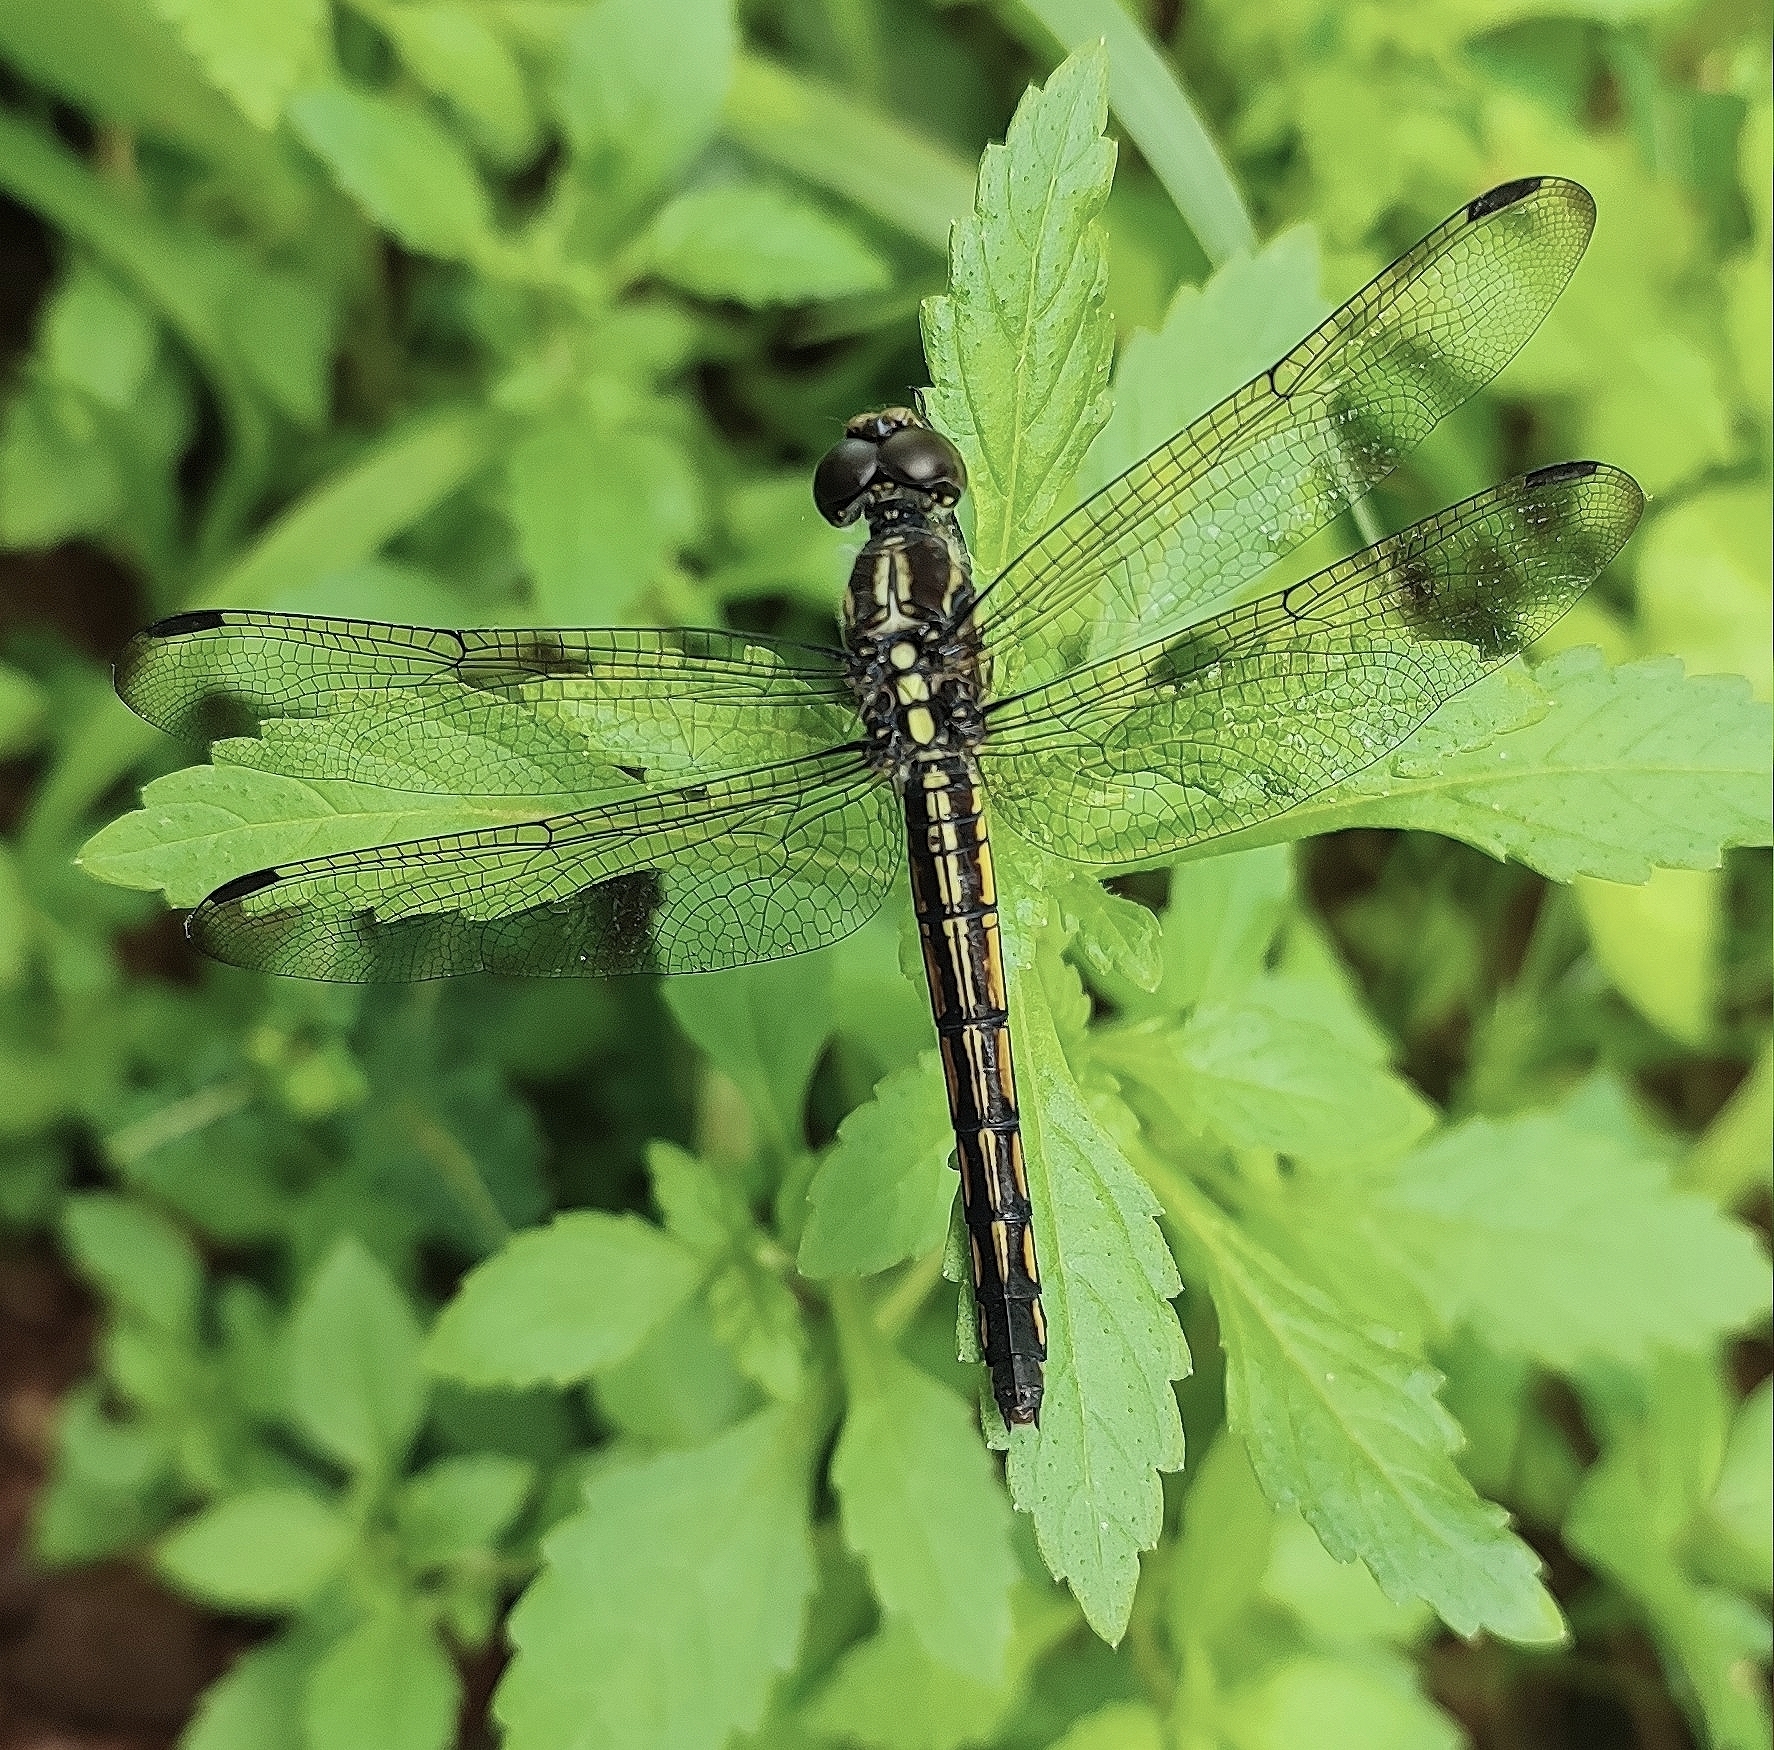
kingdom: Animalia
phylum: Arthropoda
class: Insecta
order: Odonata
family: Libellulidae
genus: Potamarcha
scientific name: Potamarcha congener
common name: Blue chaser
